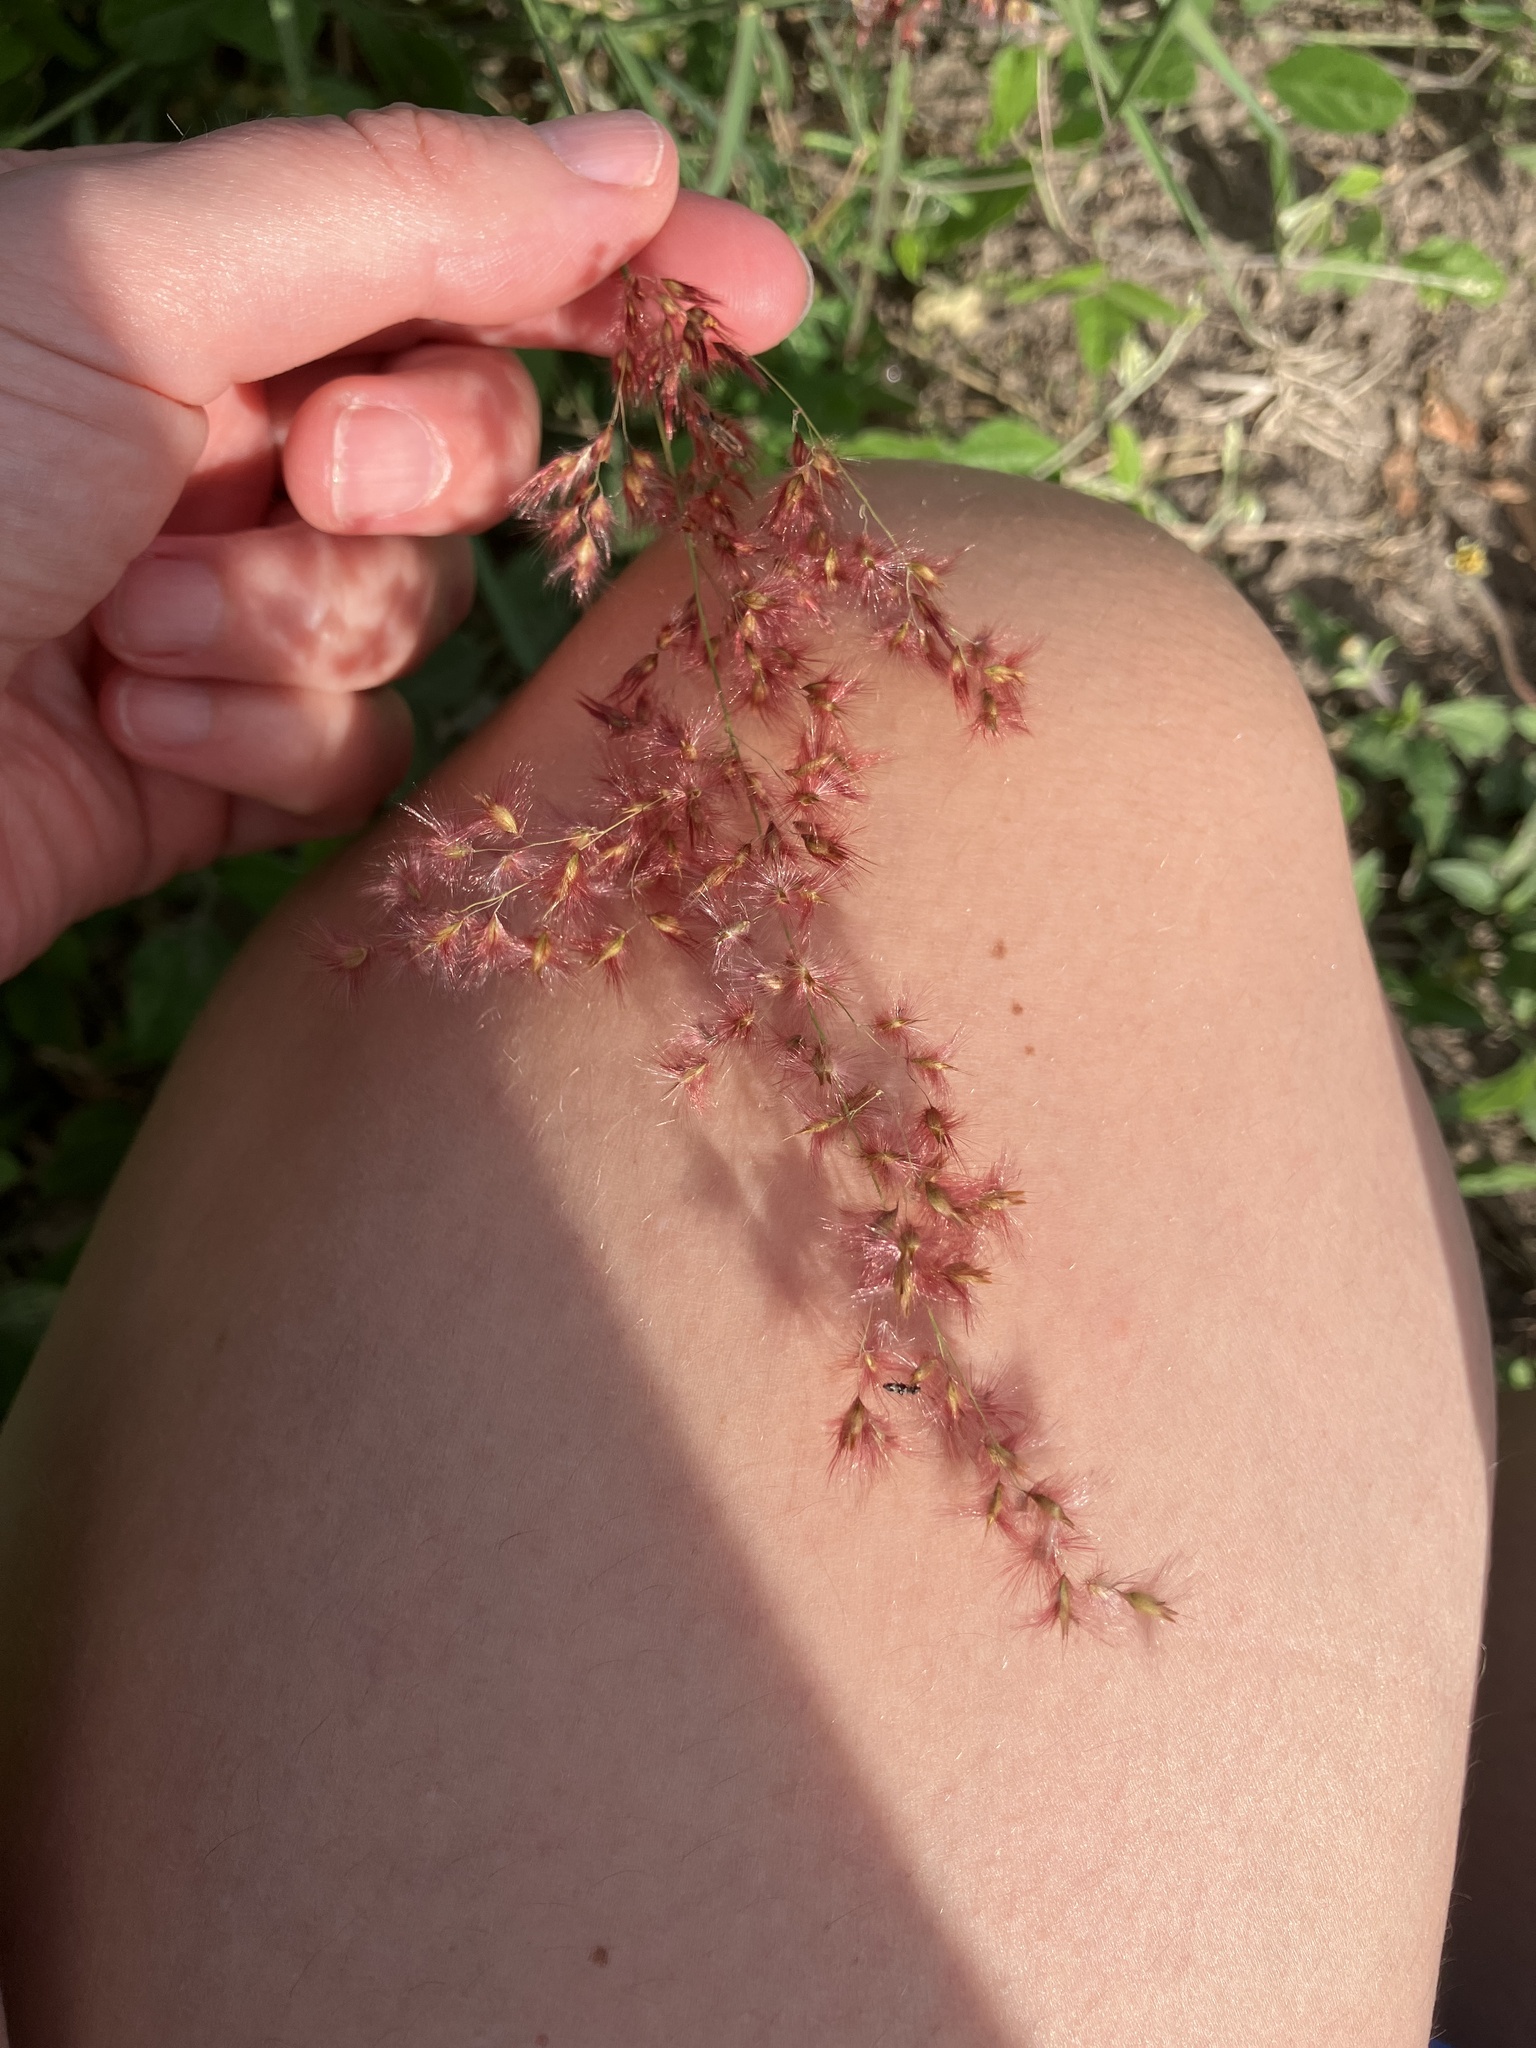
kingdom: Plantae
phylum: Tracheophyta
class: Liliopsida
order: Poales
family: Poaceae
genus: Melinis
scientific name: Melinis repens
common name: Rose natal grass
